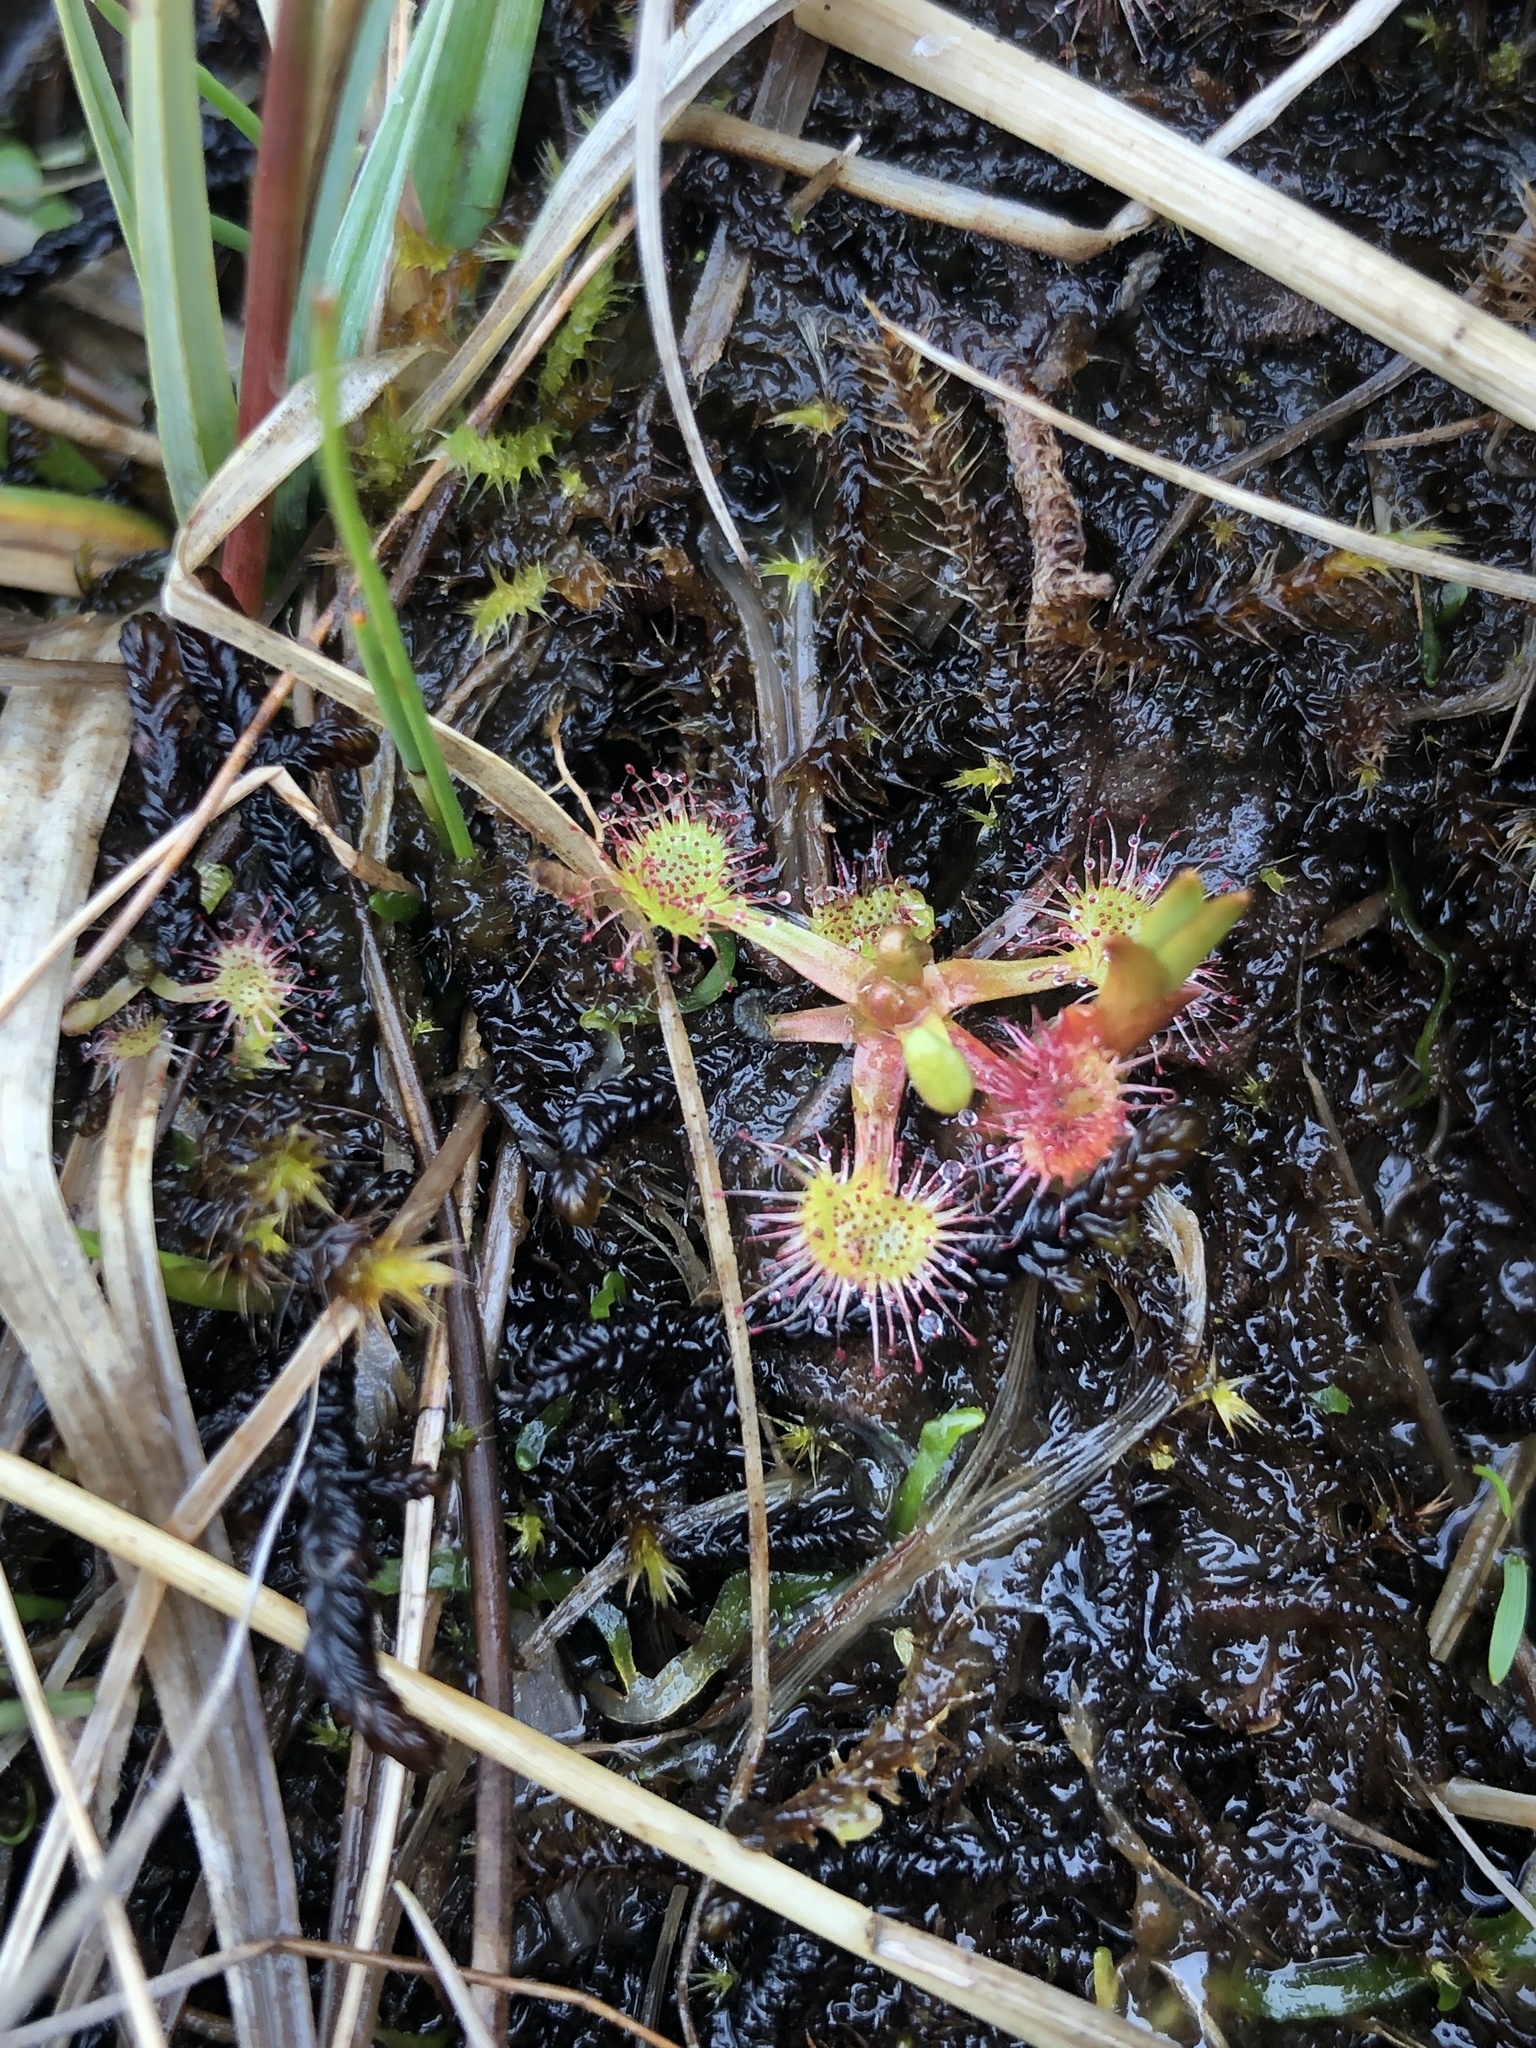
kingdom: Plantae
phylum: Tracheophyta
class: Magnoliopsida
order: Caryophyllales
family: Droseraceae
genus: Drosera
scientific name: Drosera rotundifolia
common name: Round-leaved sundew
